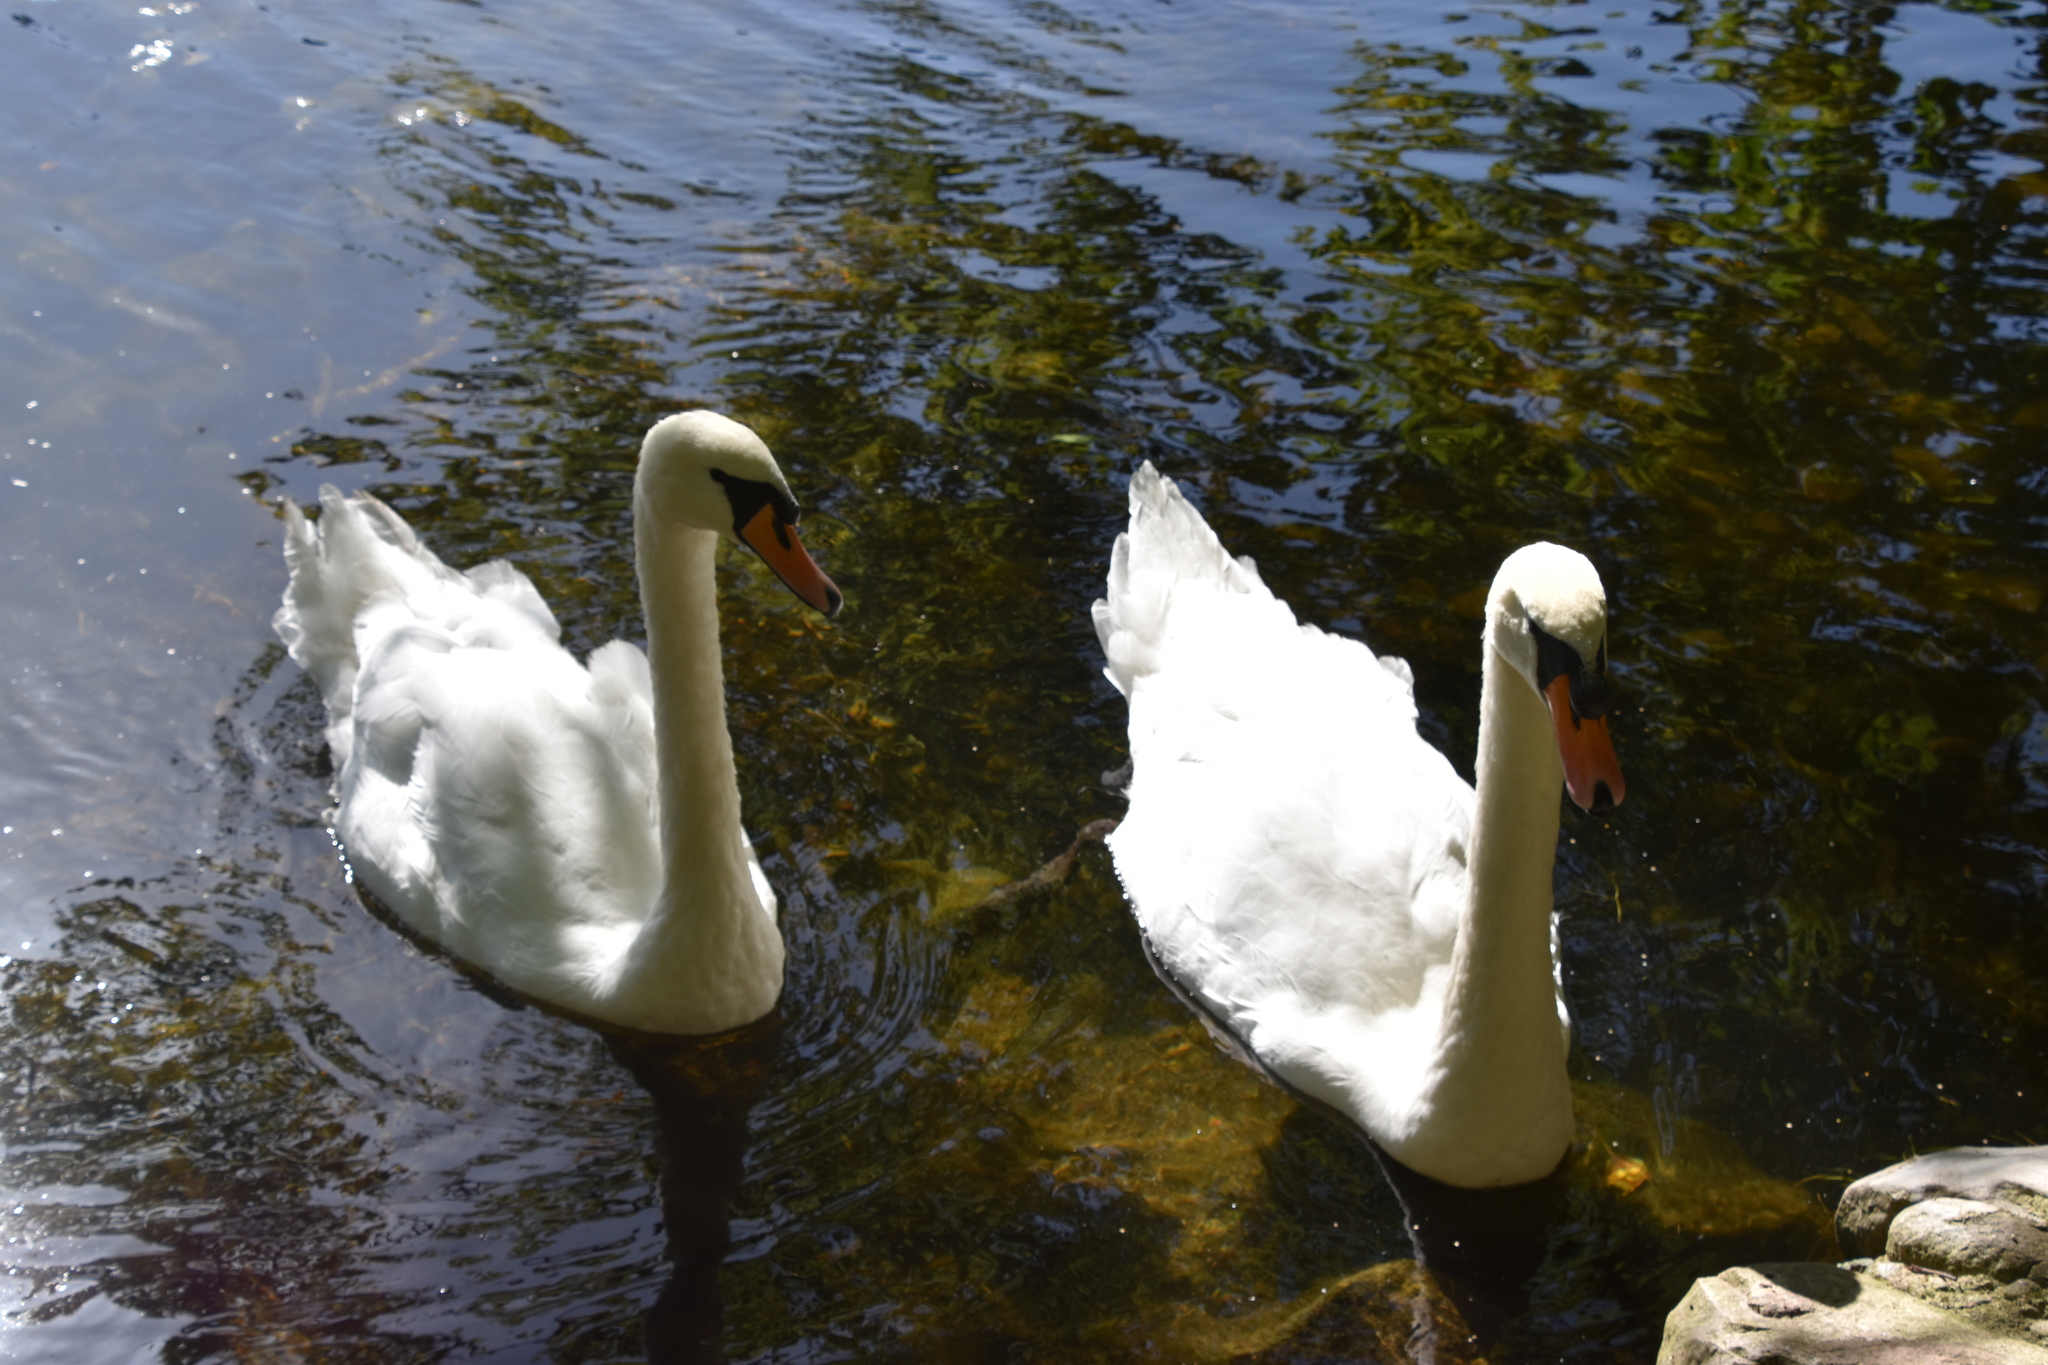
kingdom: Animalia
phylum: Chordata
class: Aves
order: Anseriformes
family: Anatidae
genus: Cygnus
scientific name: Cygnus olor
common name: Mute swan
